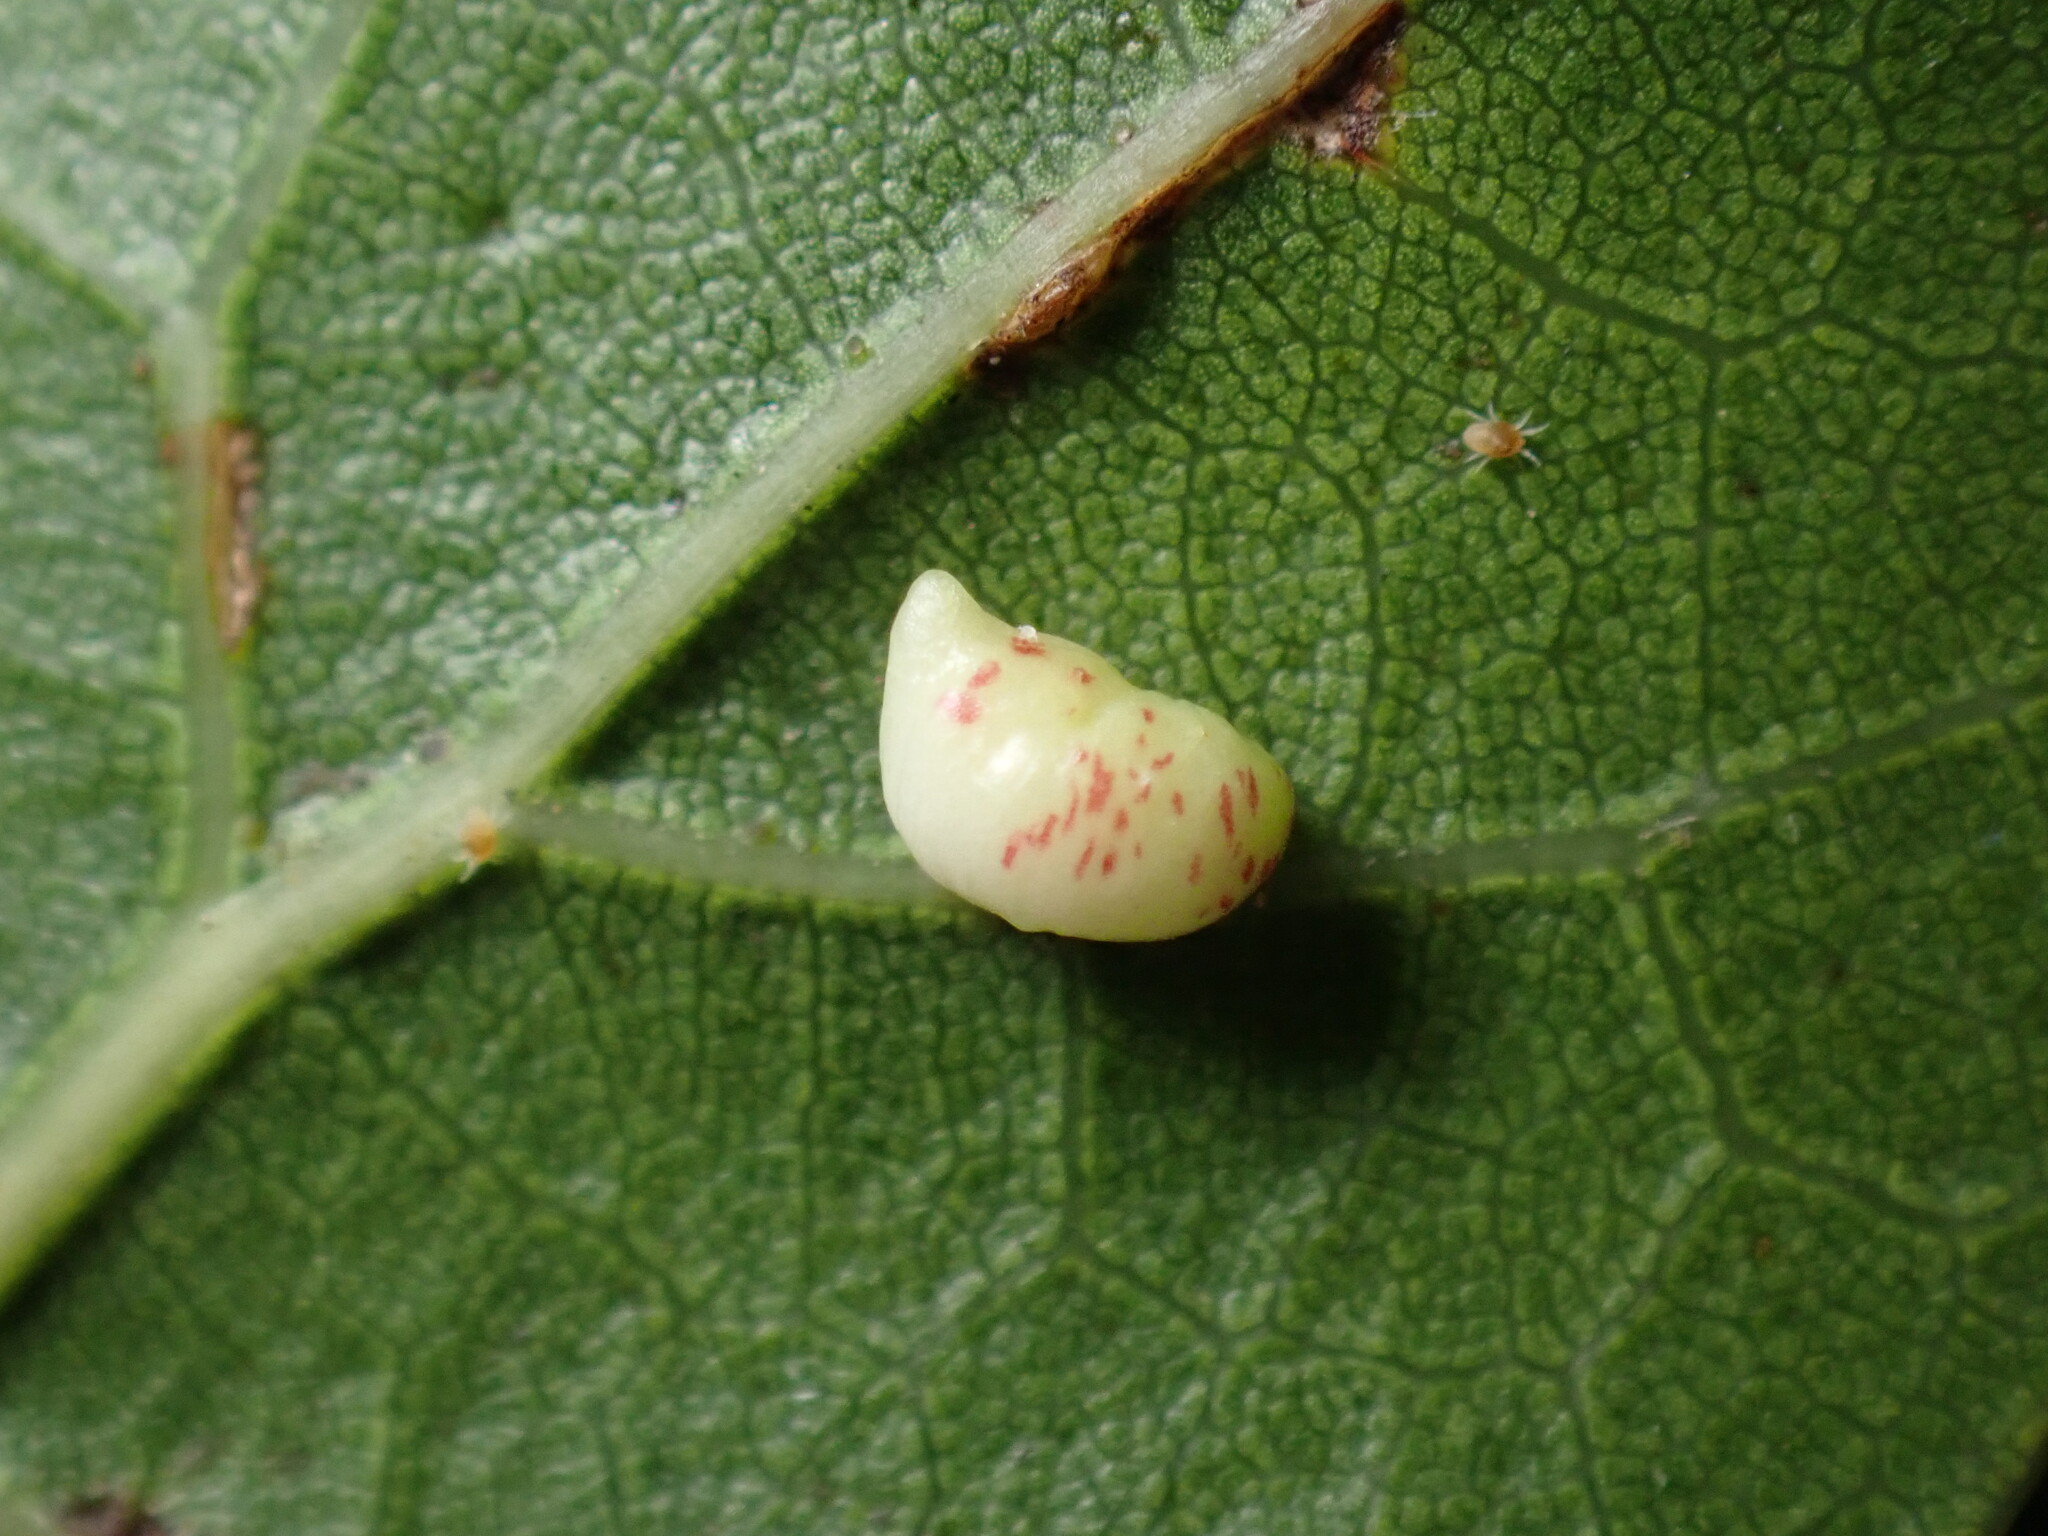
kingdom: Animalia
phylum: Arthropoda
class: Insecta
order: Hymenoptera
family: Cynipidae
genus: Dryocosmus
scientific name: Dryocosmus
